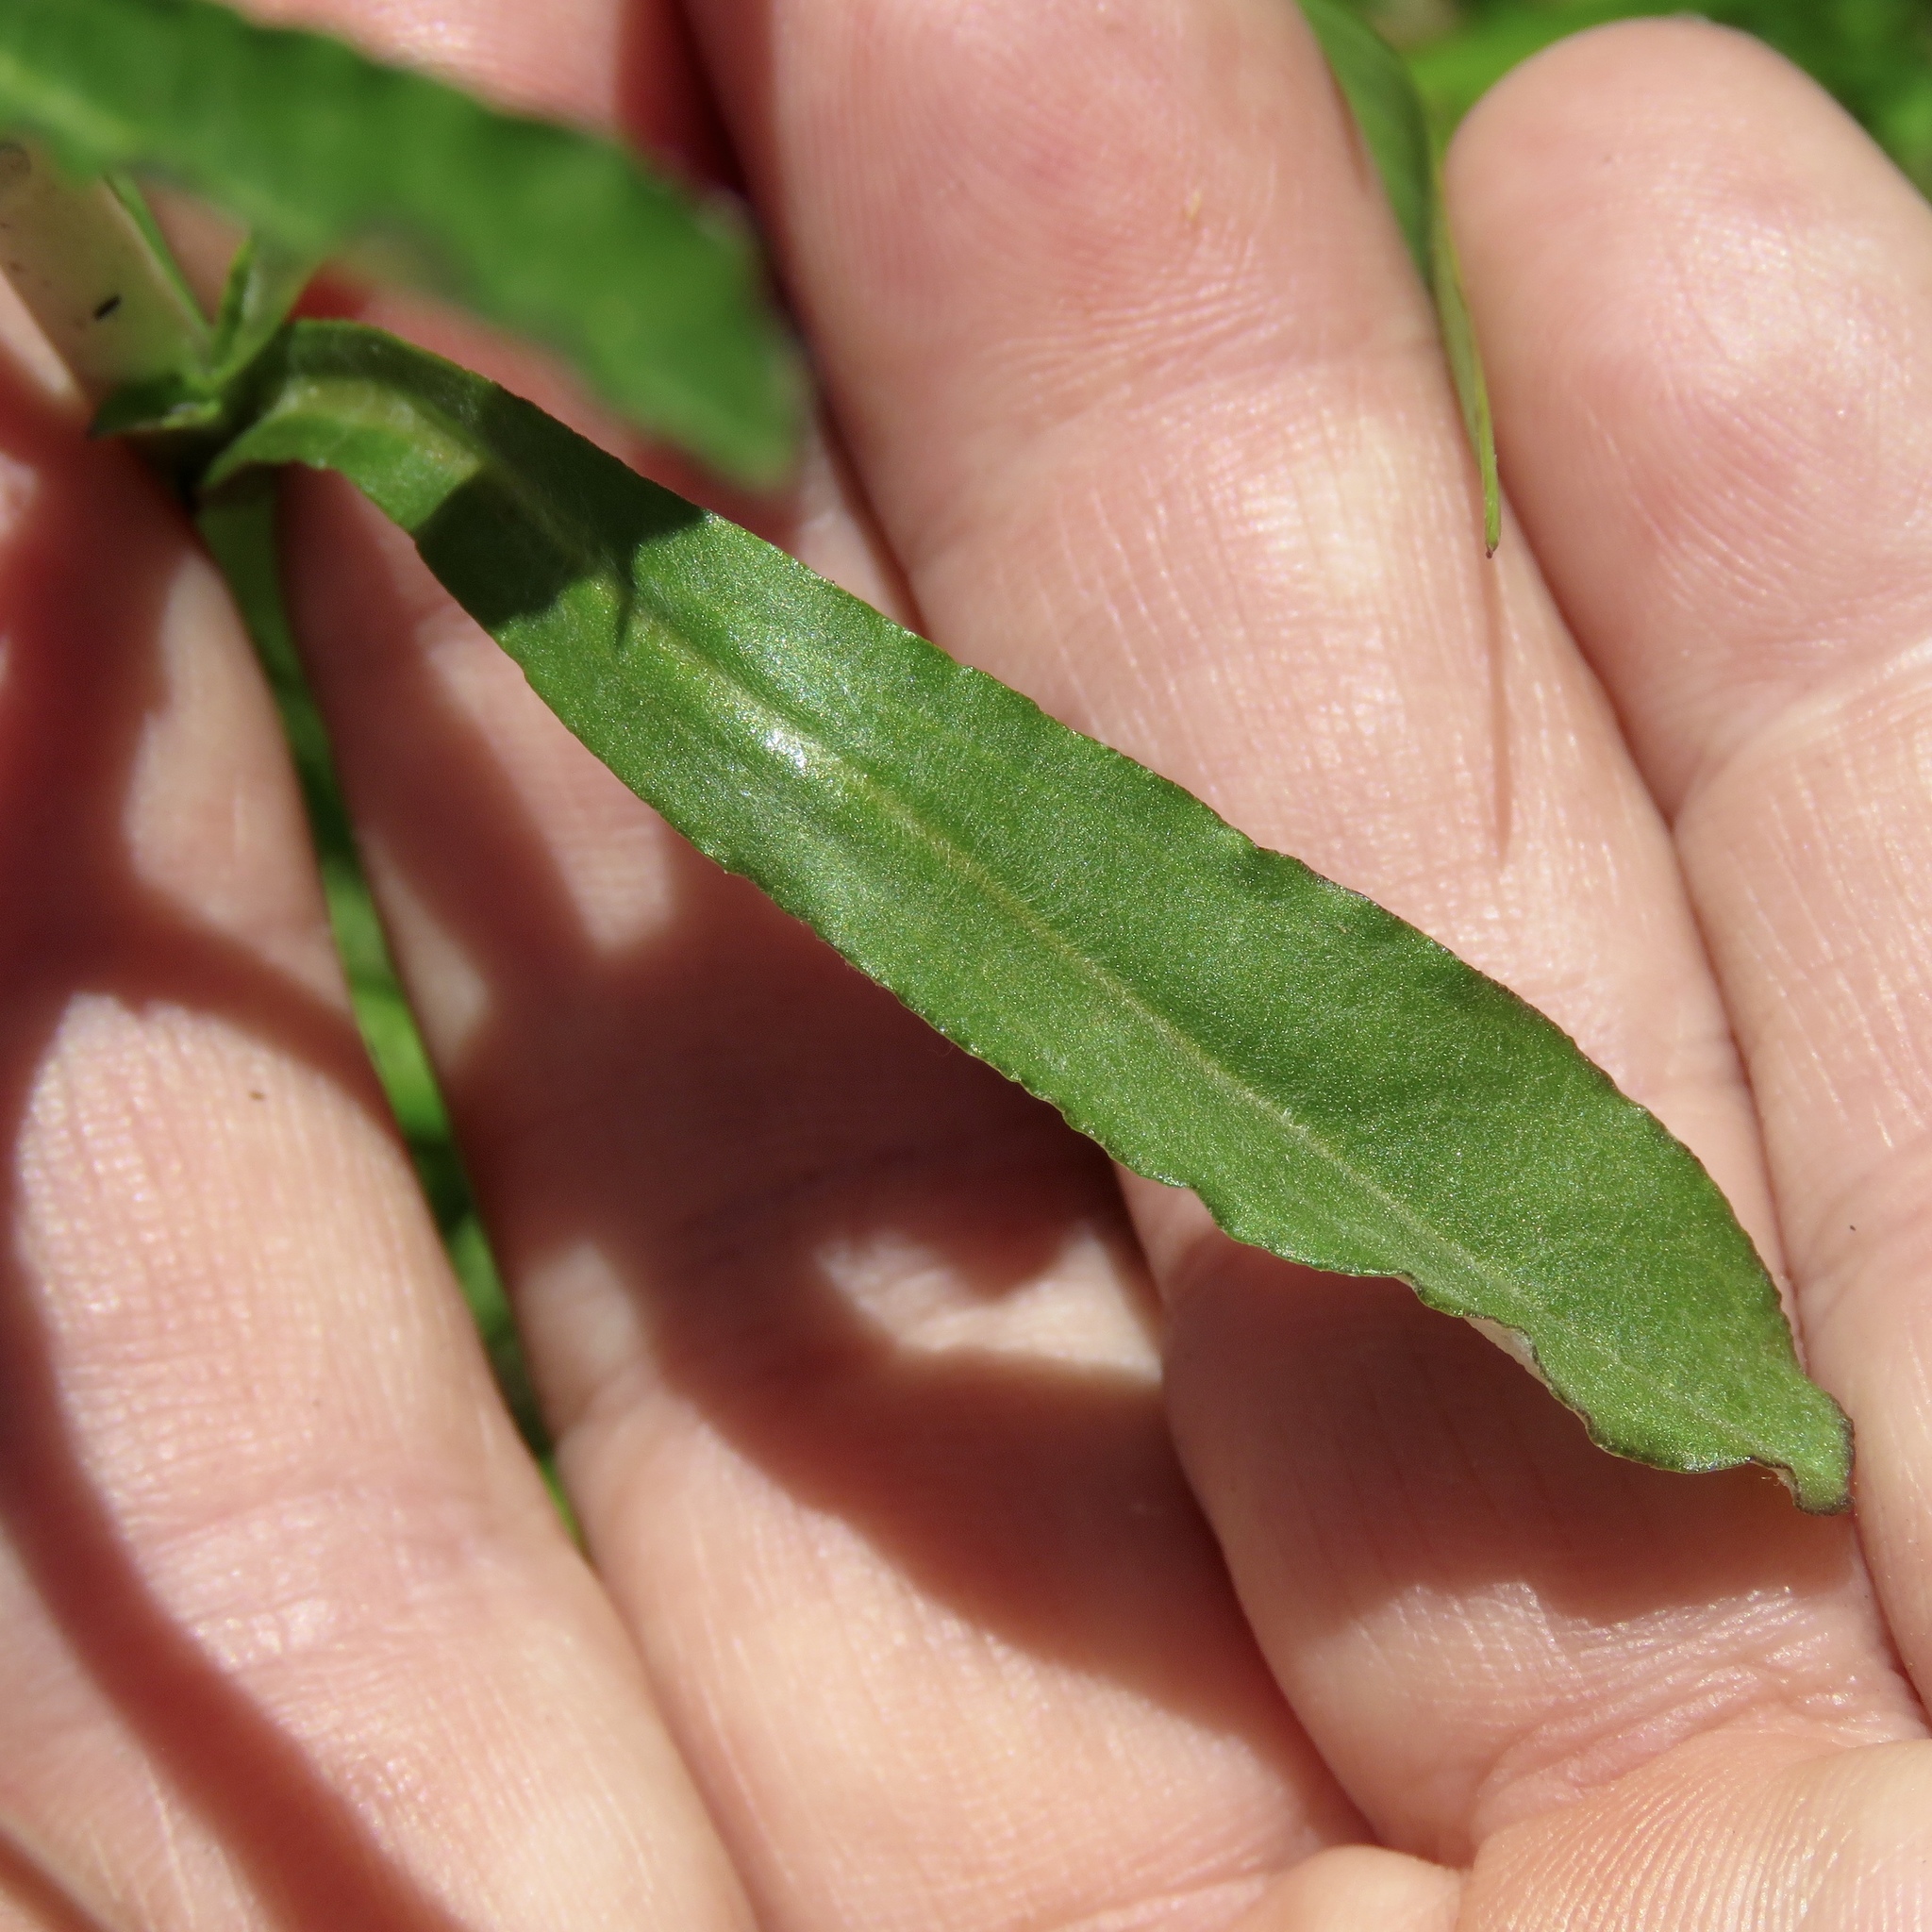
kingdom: Plantae
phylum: Tracheophyta
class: Magnoliopsida
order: Asterales
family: Asteraceae
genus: Gamochaeta
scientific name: Gamochaeta purpurea
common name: Purple cudweed
